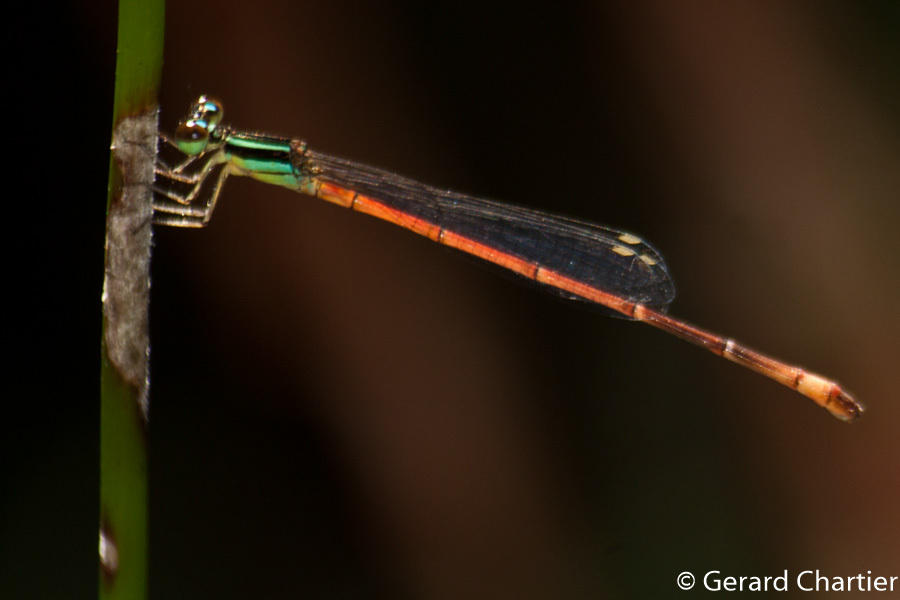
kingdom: Animalia
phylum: Arthropoda
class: Insecta
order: Odonata
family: Coenagrionidae
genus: Argiocnemis
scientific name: Argiocnemis rubescens
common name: Red-tipped shadefly
